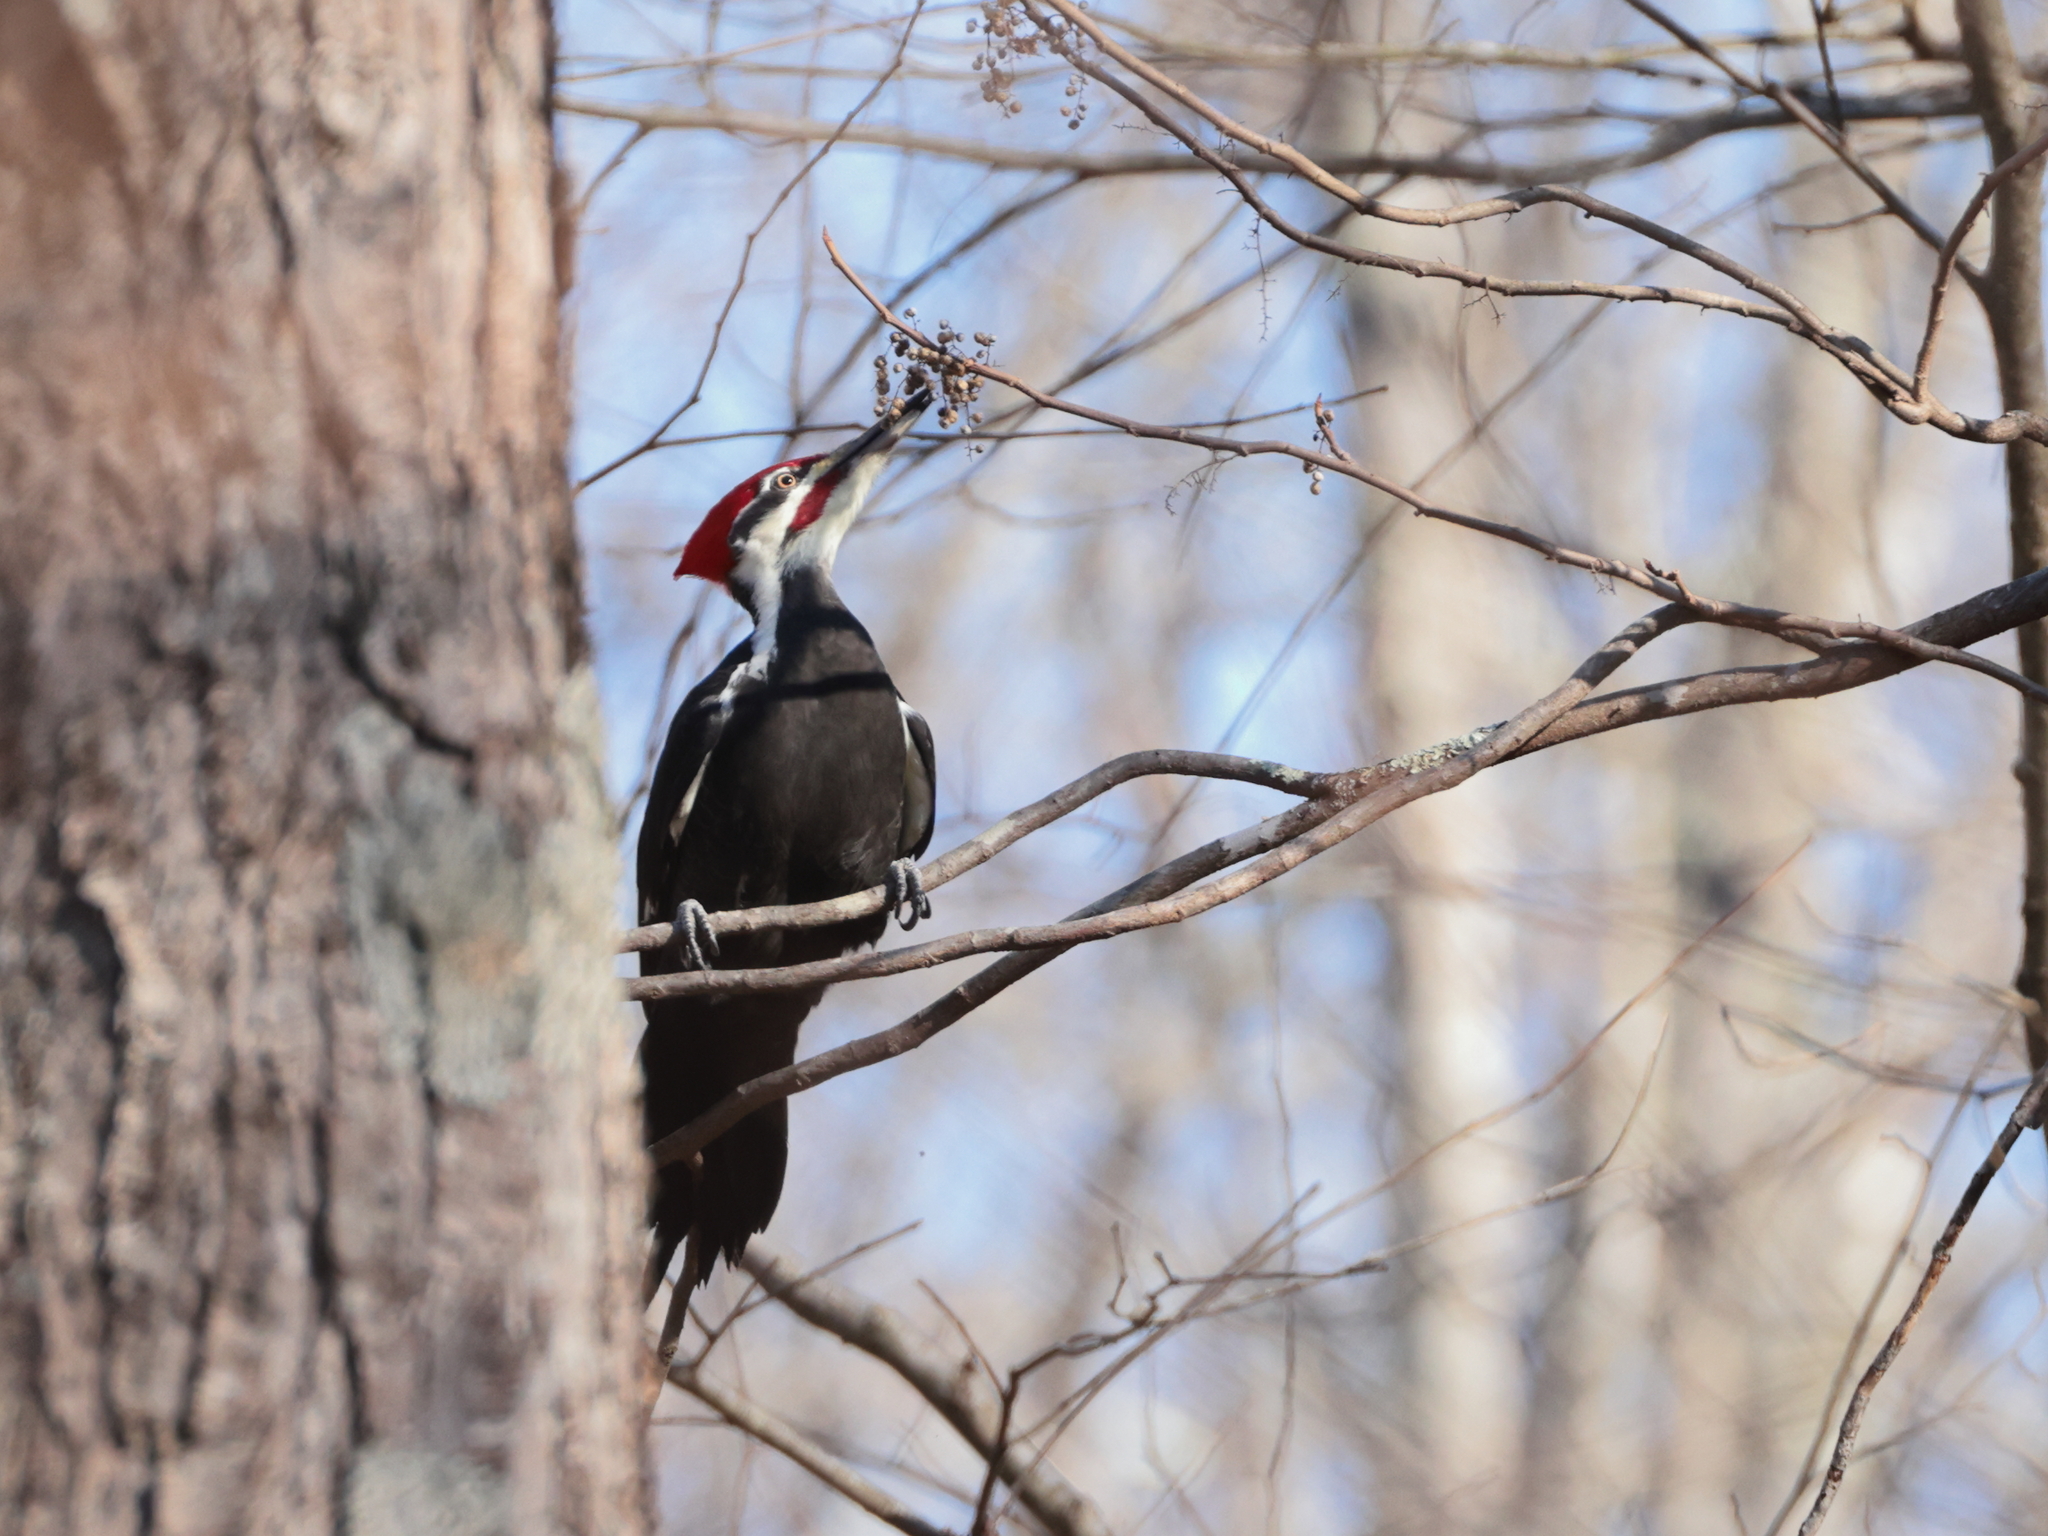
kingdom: Animalia
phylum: Chordata
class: Aves
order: Piciformes
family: Picidae
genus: Dryocopus
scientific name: Dryocopus pileatus
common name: Pileated woodpecker
